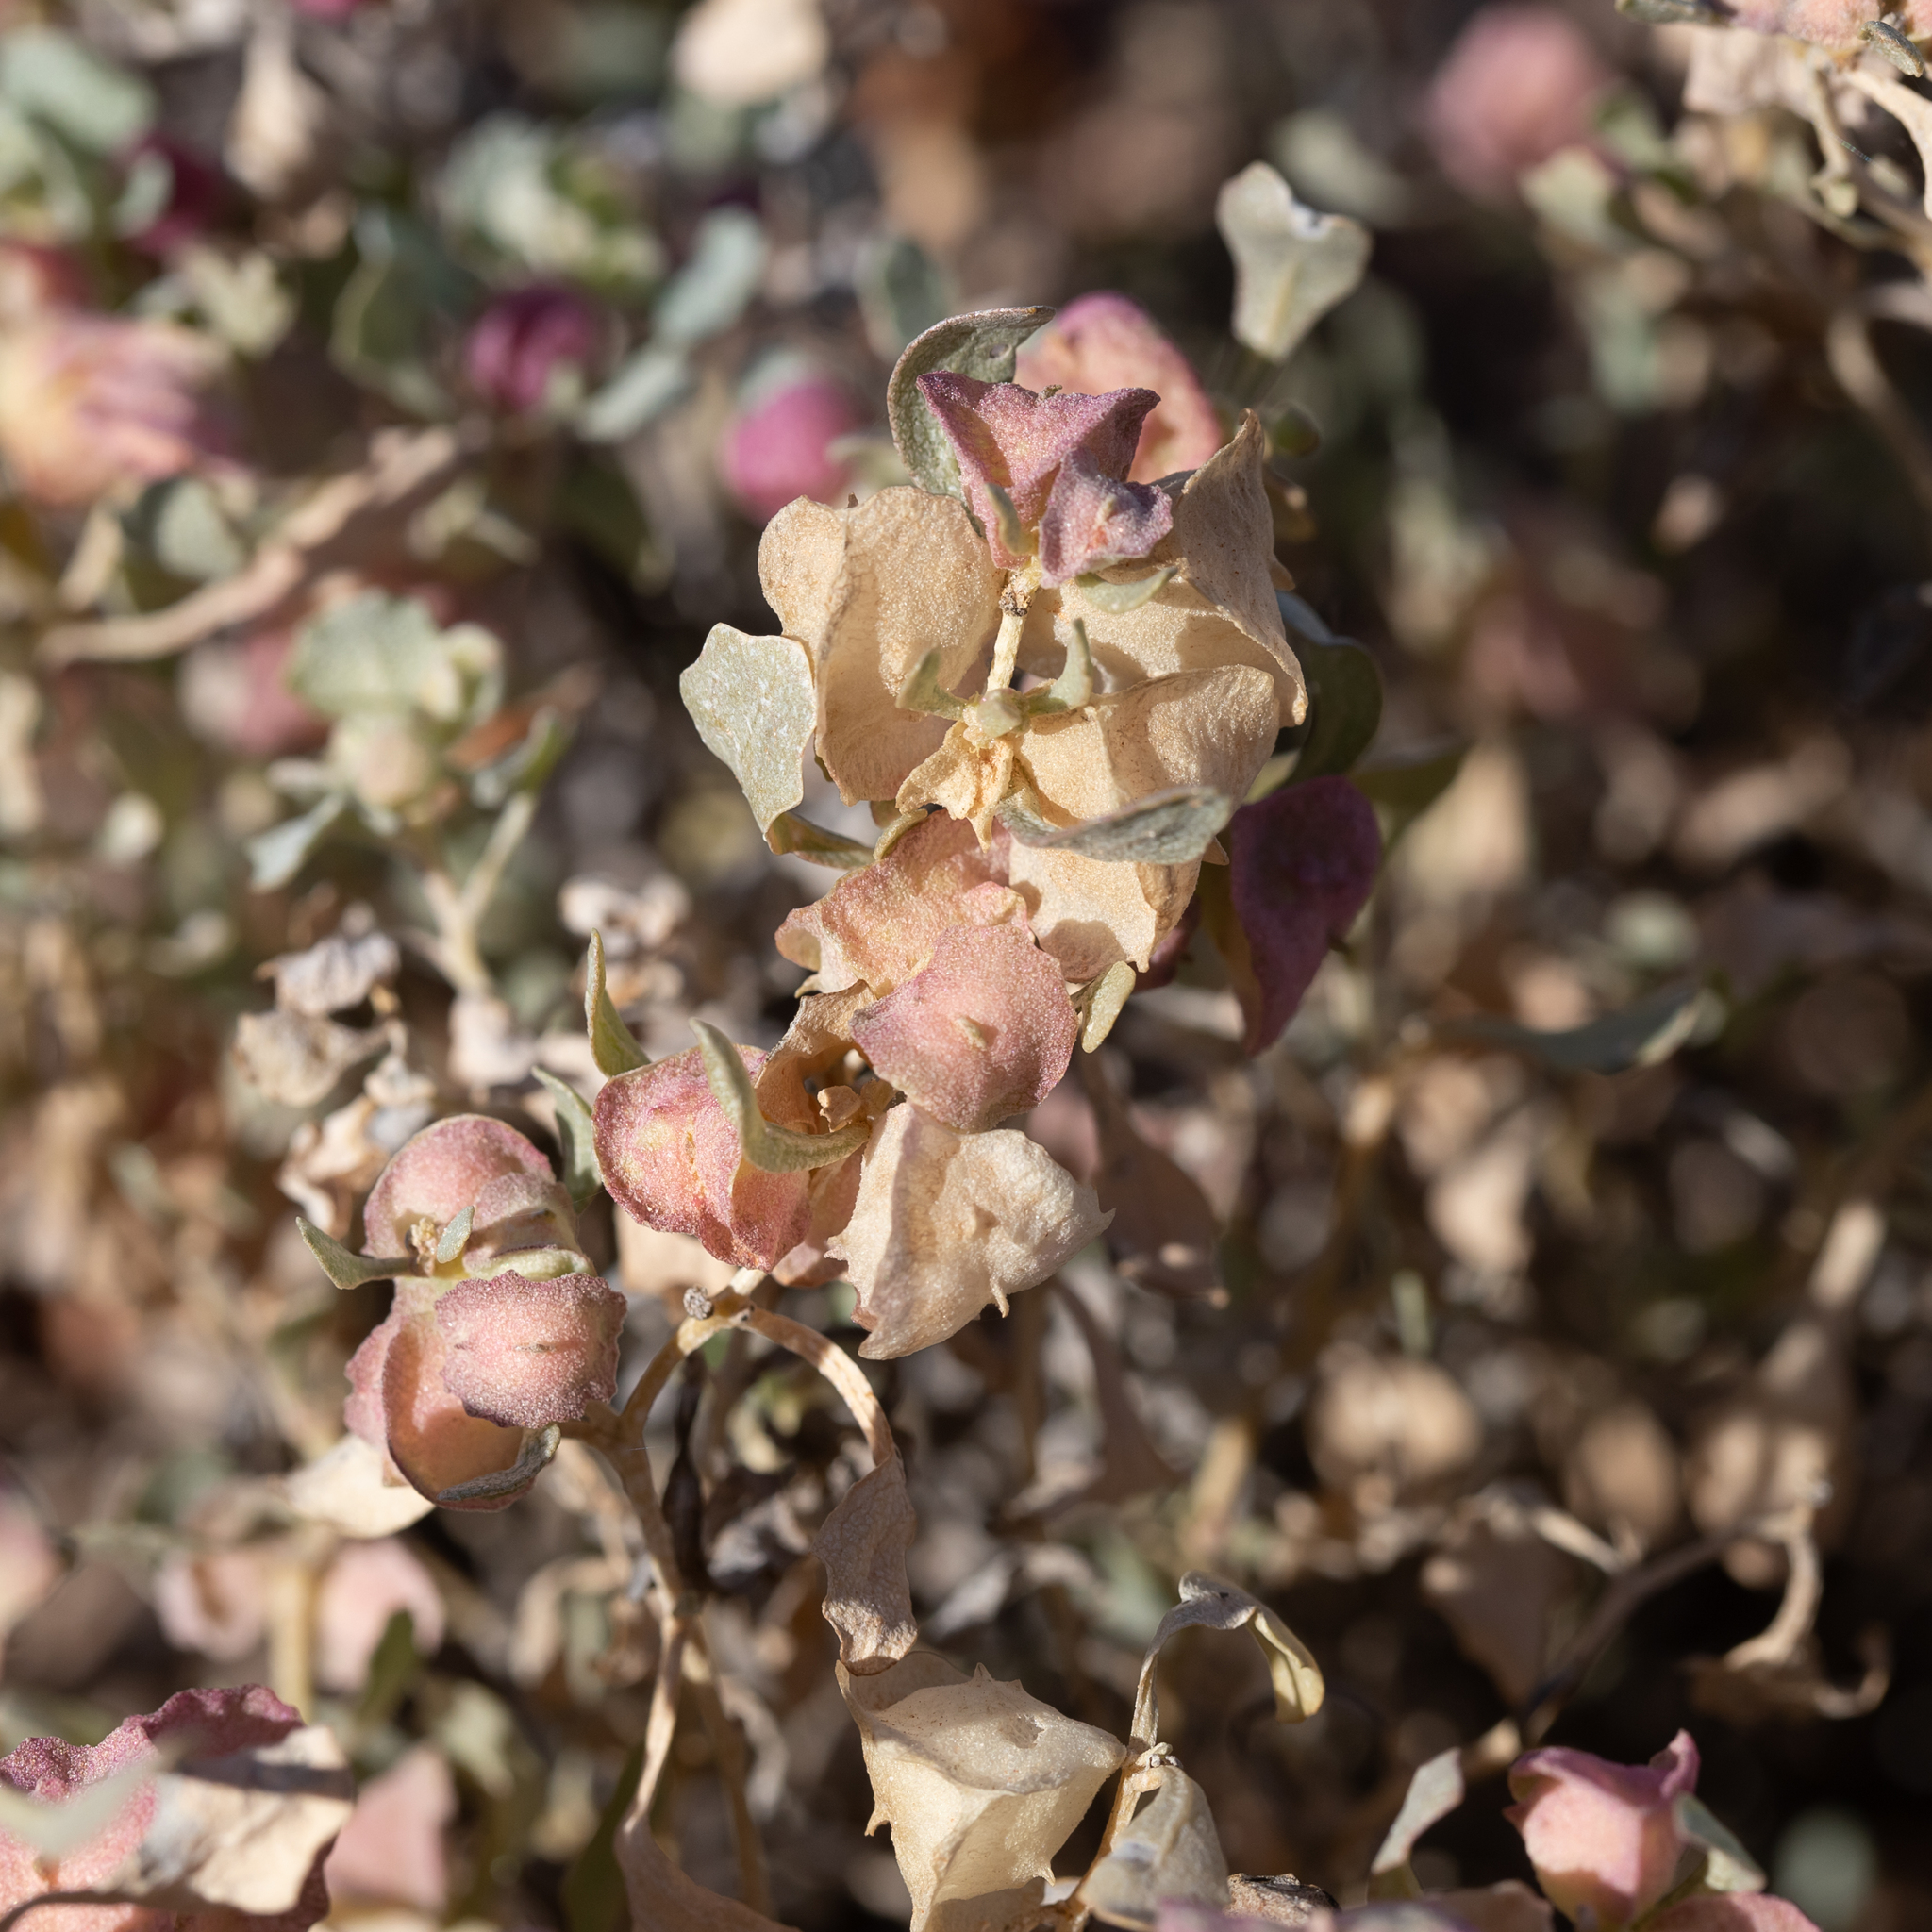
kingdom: Plantae
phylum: Tracheophyta
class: Magnoliopsida
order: Caryophyllales
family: Amaranthaceae
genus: Atriplex
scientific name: Atriplex lindleyi
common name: Lindley's saltbush
